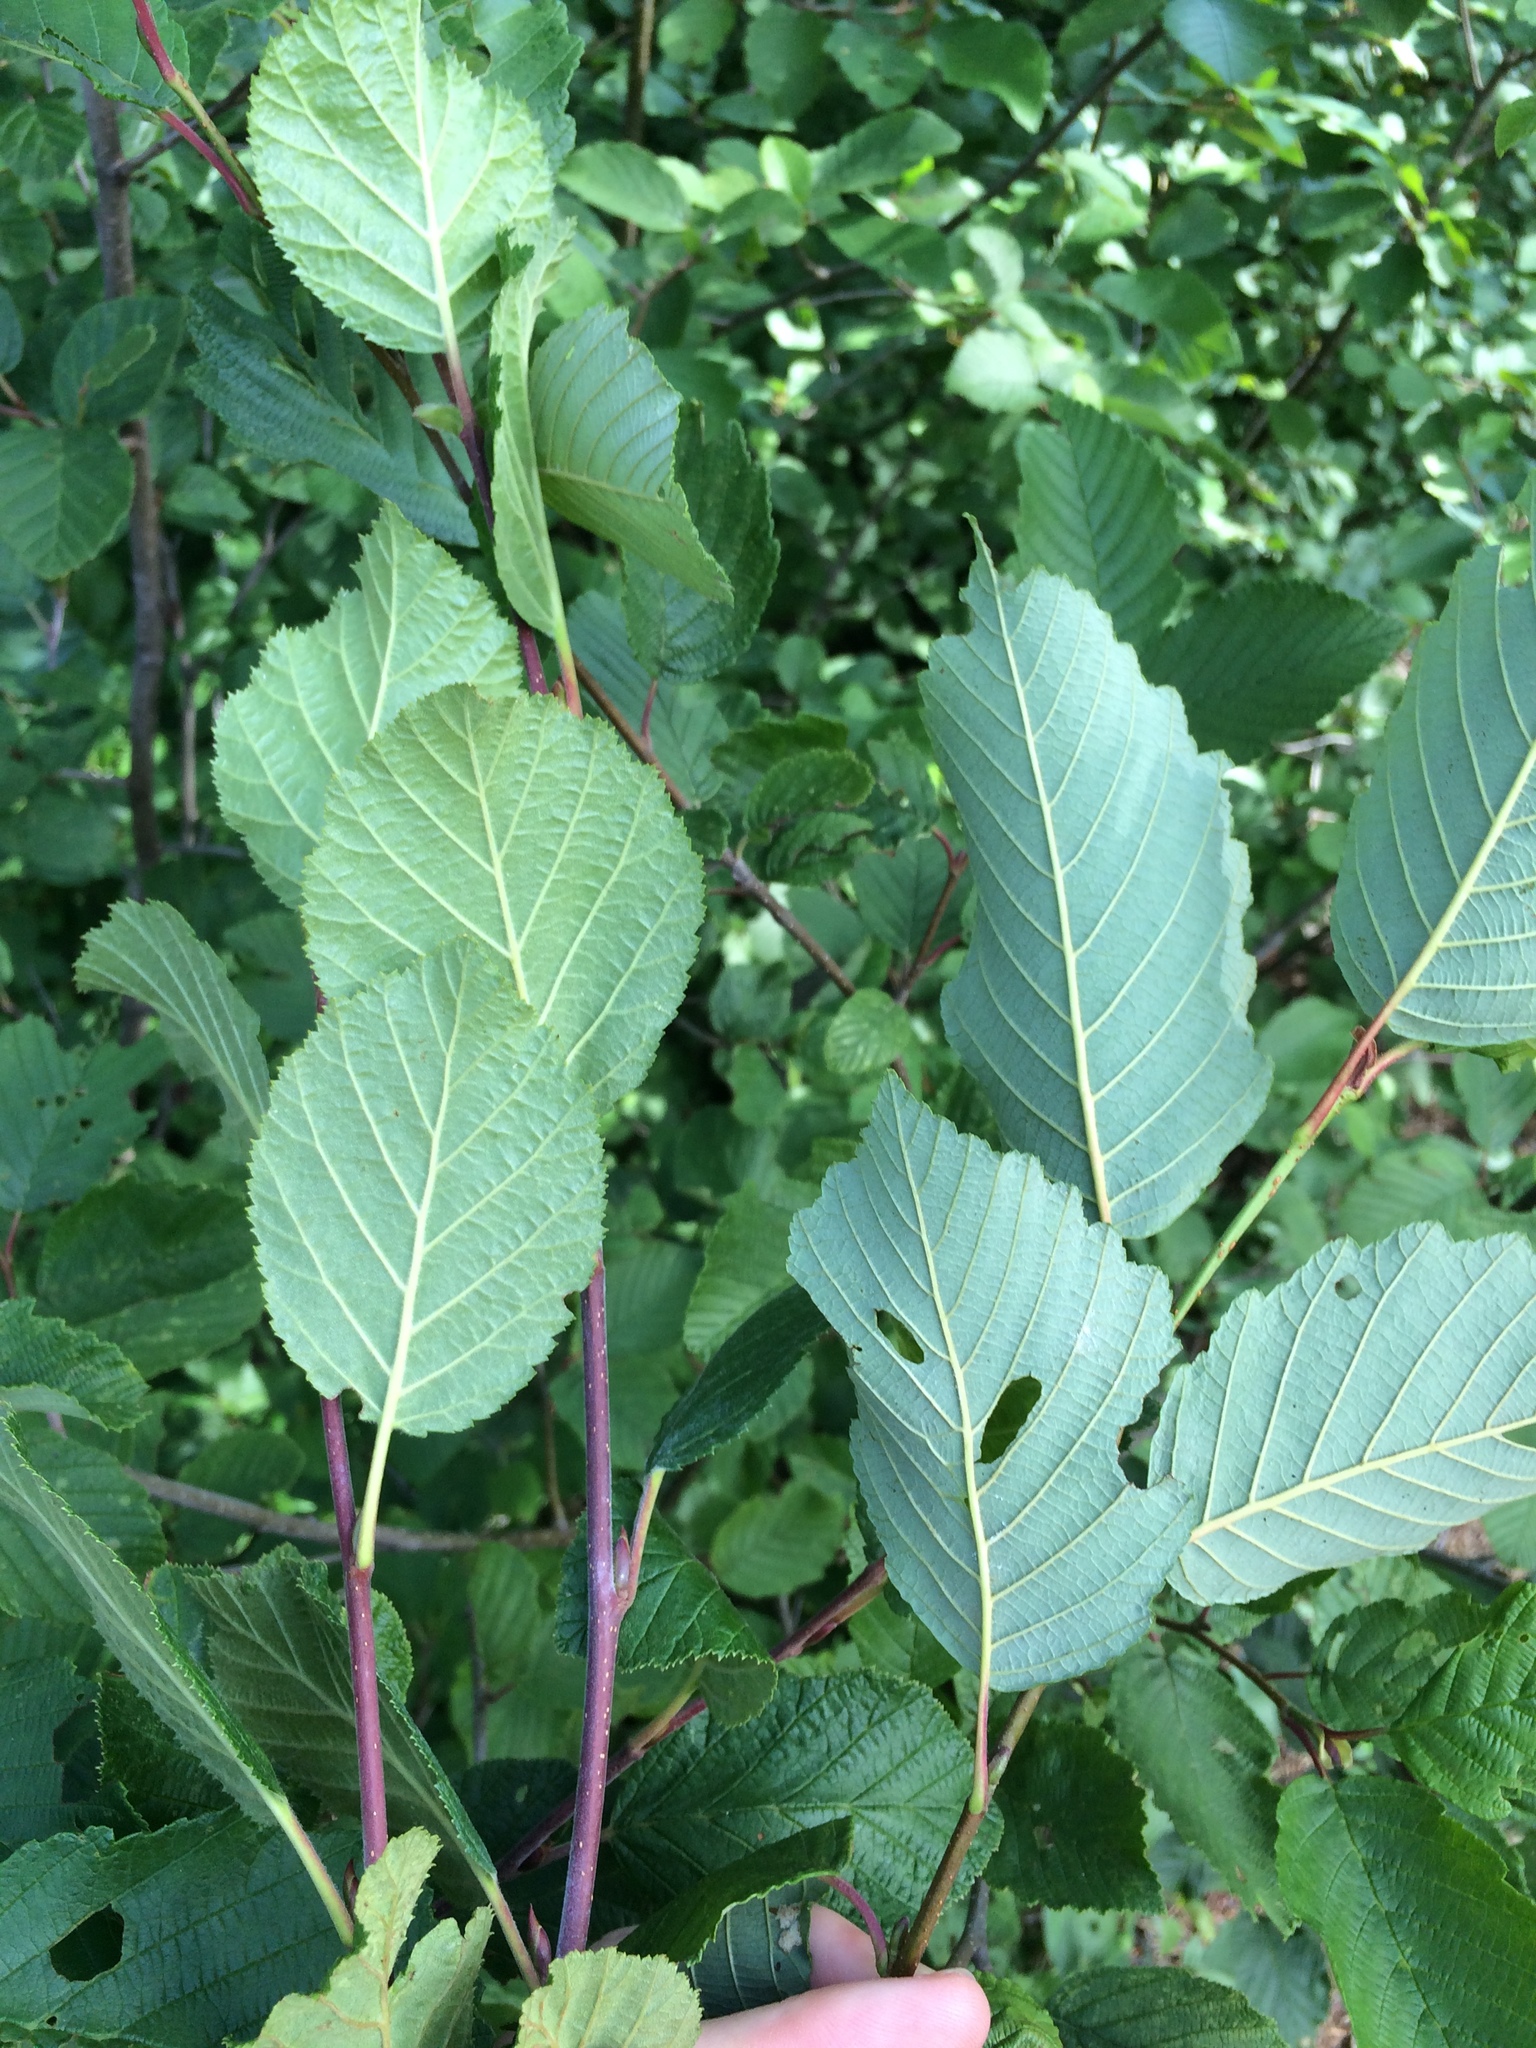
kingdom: Plantae
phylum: Tracheophyta
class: Magnoliopsida
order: Fagales
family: Betulaceae
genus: Alnus
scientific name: Alnus alnobetula
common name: Green alder
